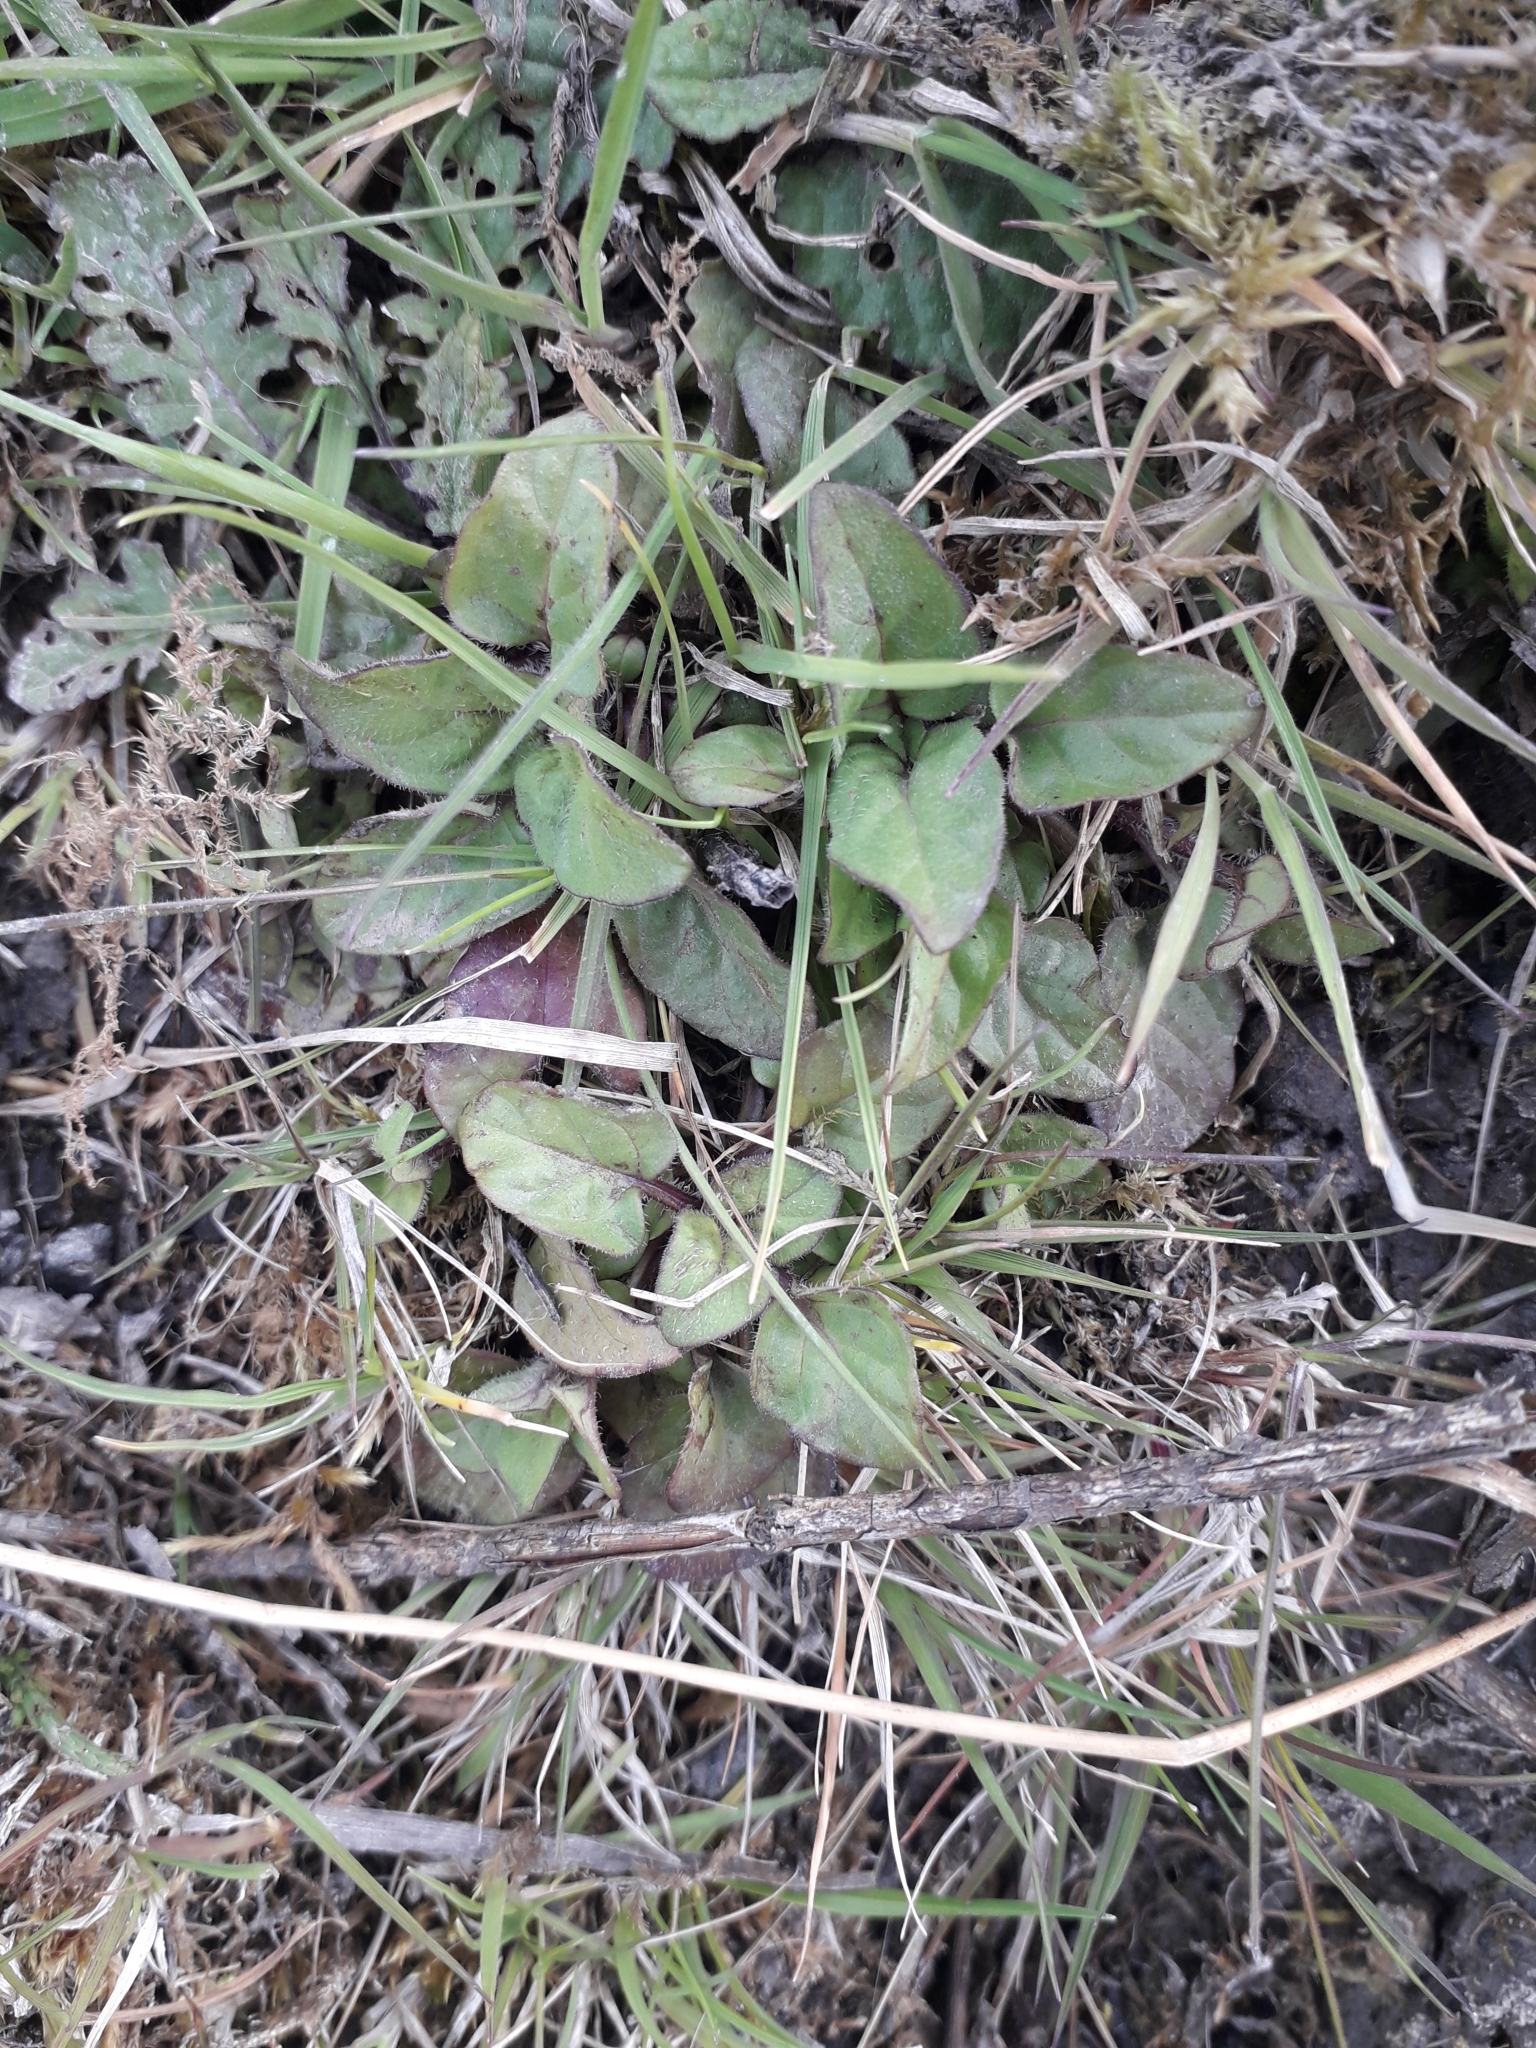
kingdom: Plantae
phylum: Tracheophyta
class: Magnoliopsida
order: Lamiales
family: Lamiaceae
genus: Prunella
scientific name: Prunella vulgaris
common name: Heal-all
